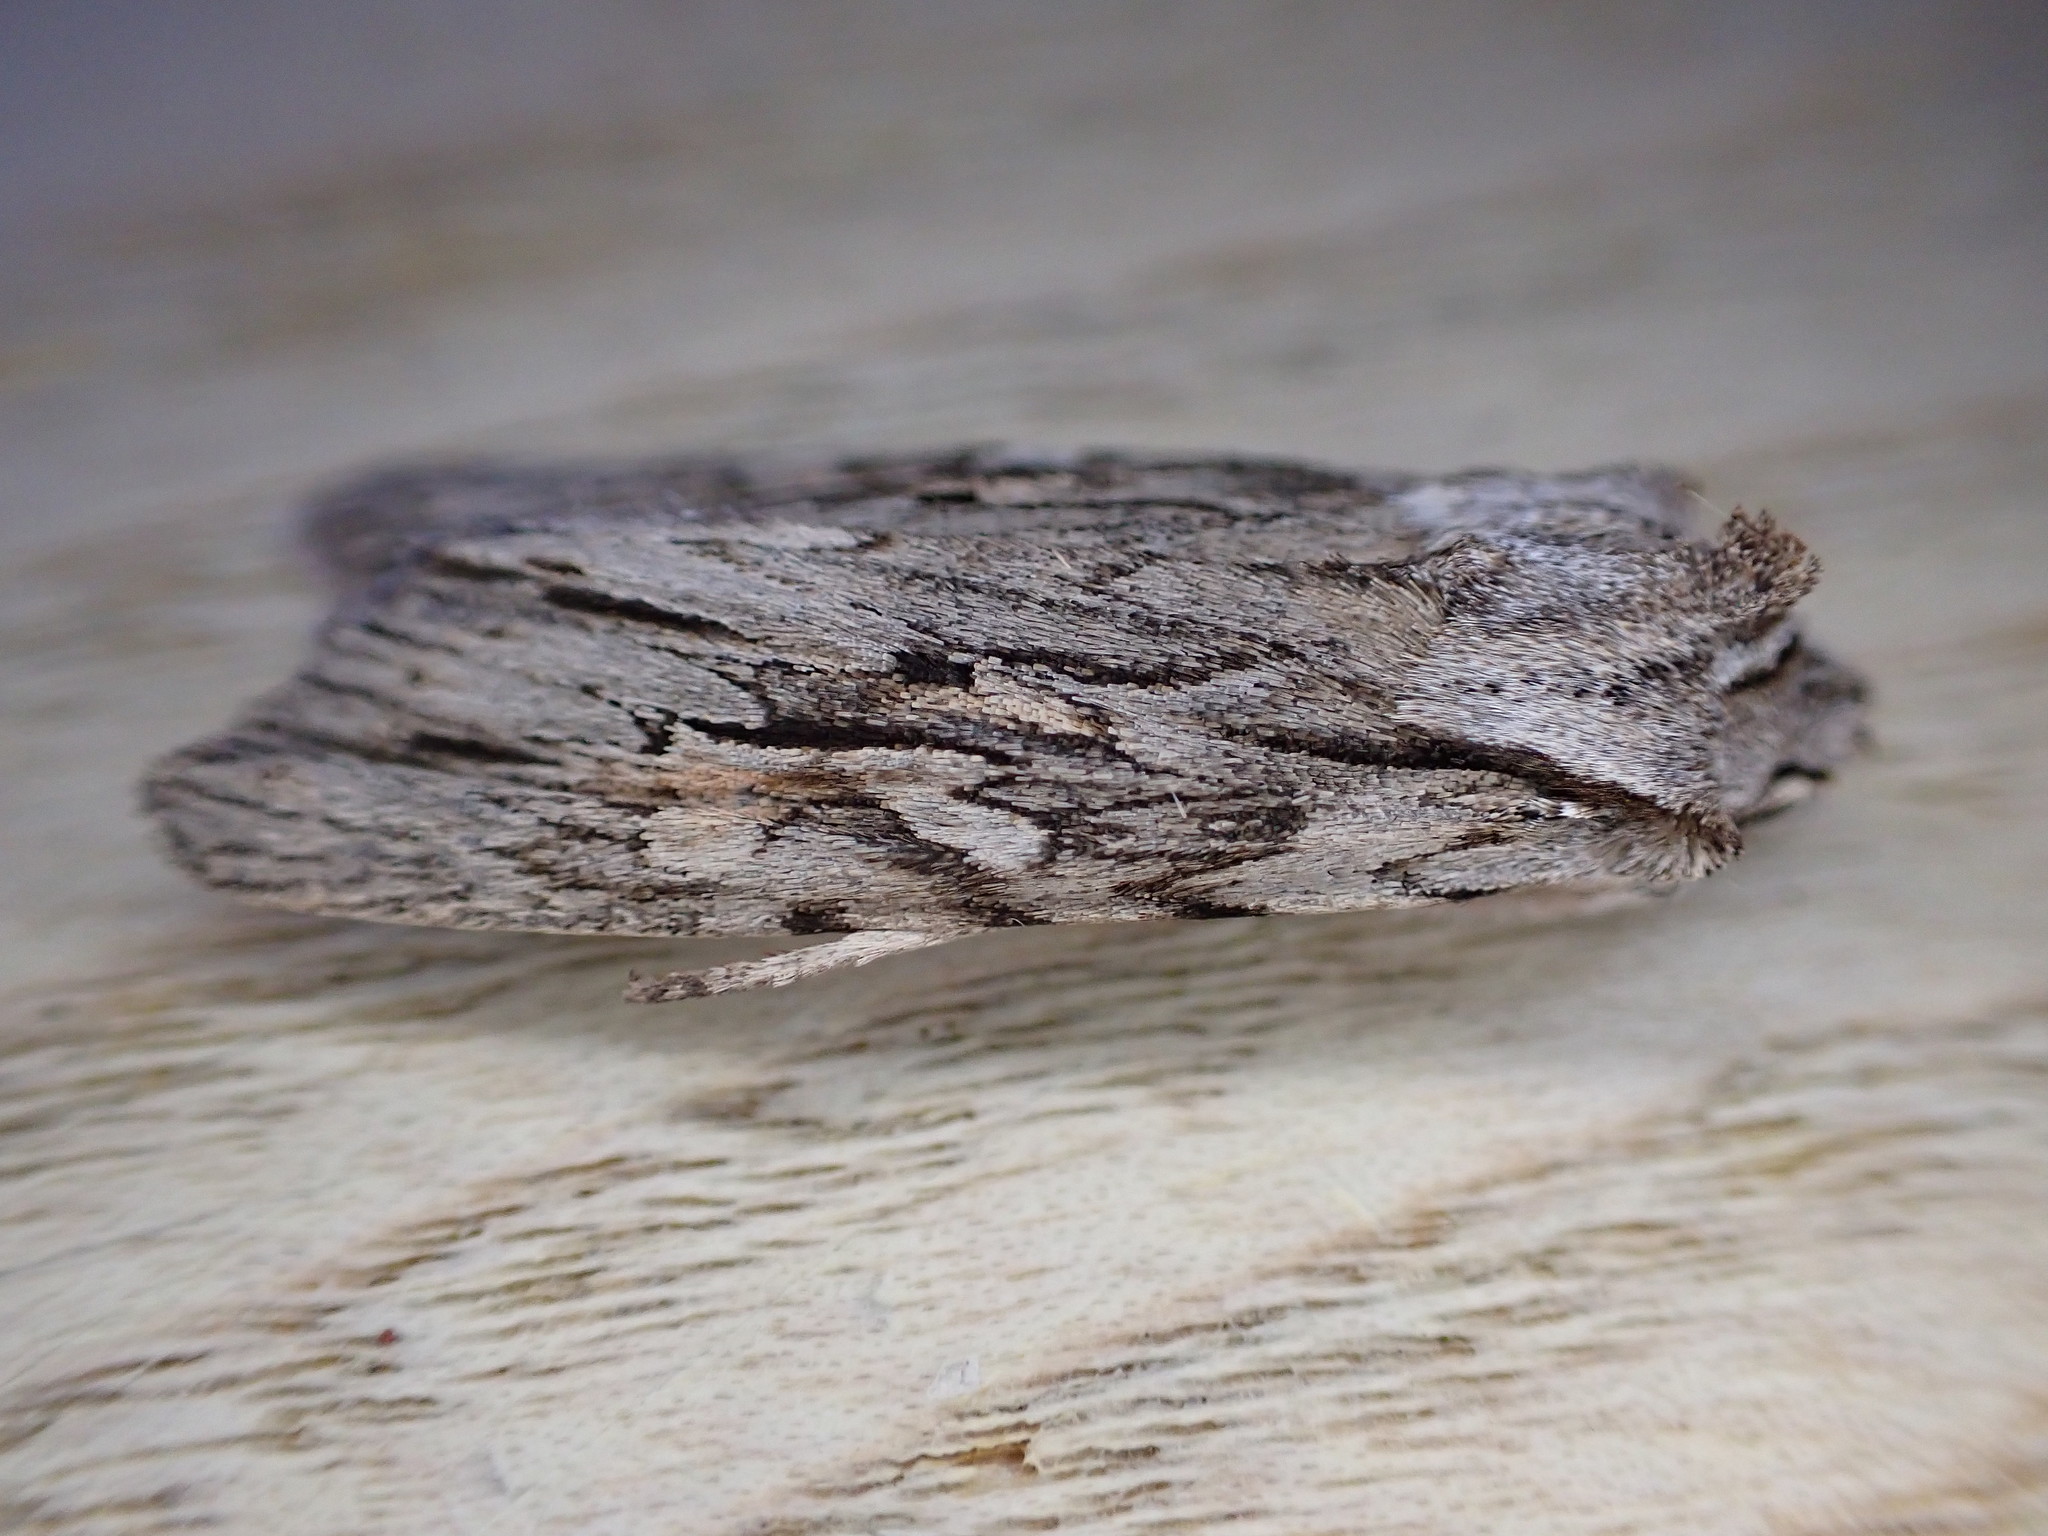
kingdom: Animalia
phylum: Arthropoda
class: Insecta
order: Lepidoptera
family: Noctuidae
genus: Lithophane
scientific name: Lithophane leautieri
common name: Blair's shoulder-knot
